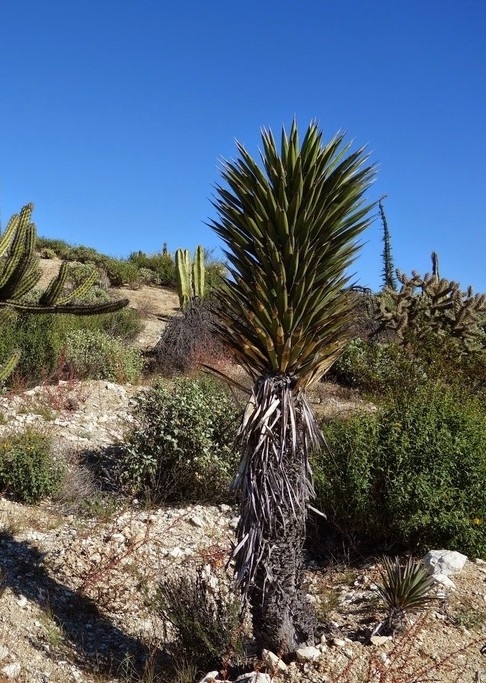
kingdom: Plantae
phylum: Tracheophyta
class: Liliopsida
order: Asparagales
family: Asparagaceae
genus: Yucca
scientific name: Yucca valida
